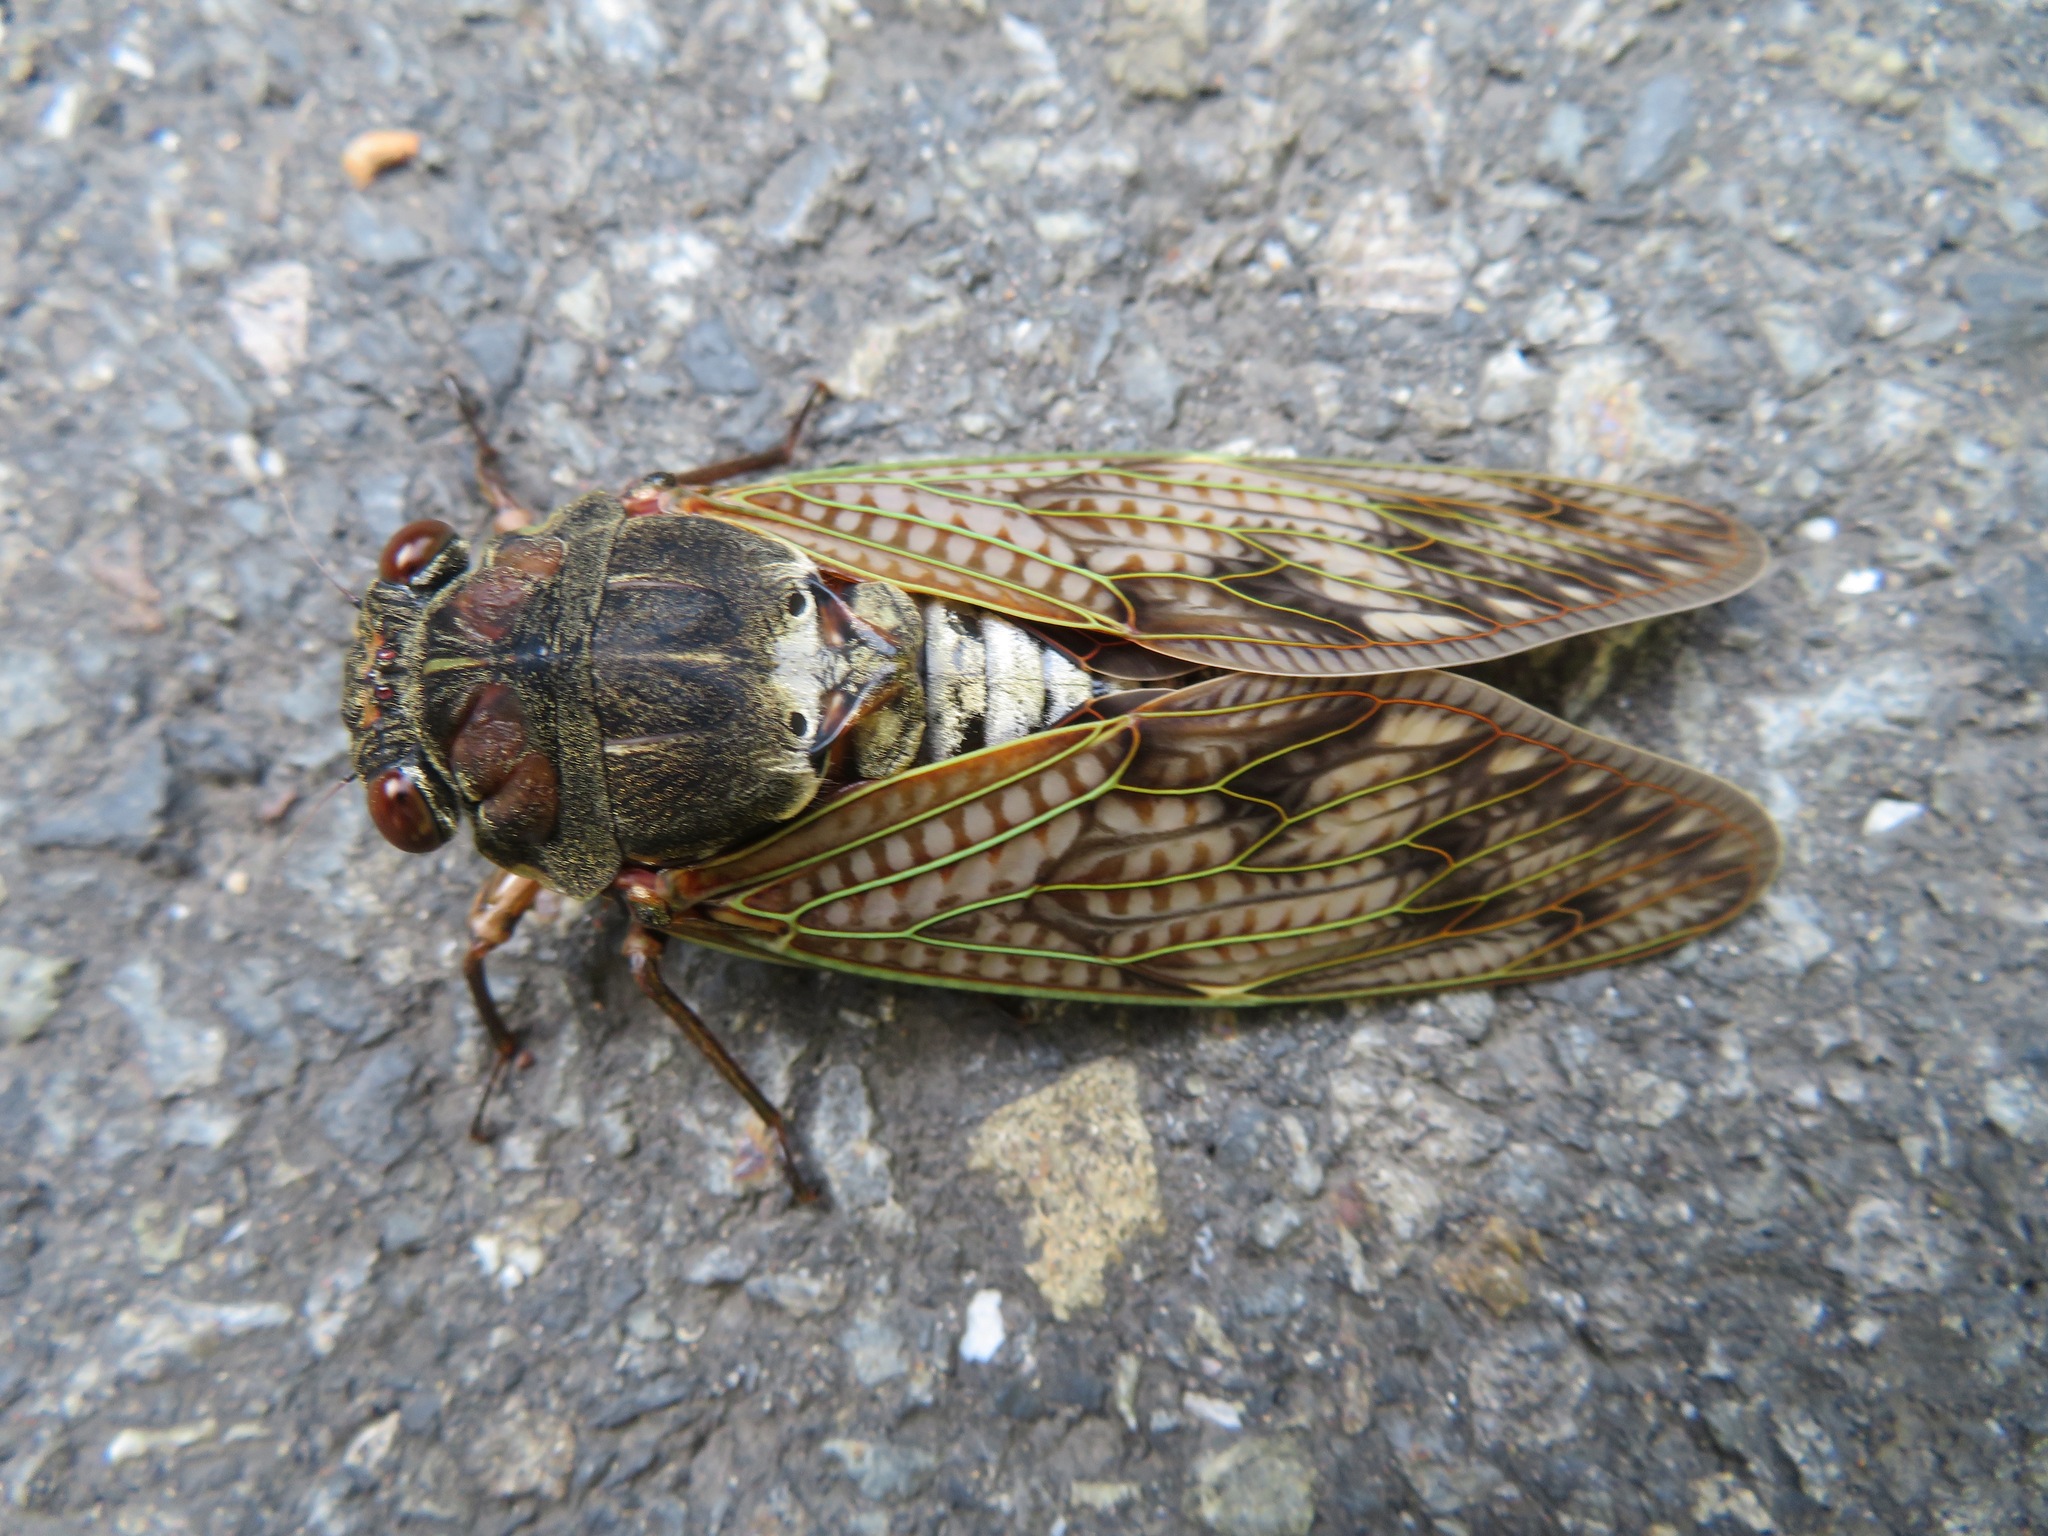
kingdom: Animalia
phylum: Arthropoda
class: Insecta
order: Hemiptera
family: Cicadidae
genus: Graptopsaltria
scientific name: Graptopsaltria nigrofuscata
